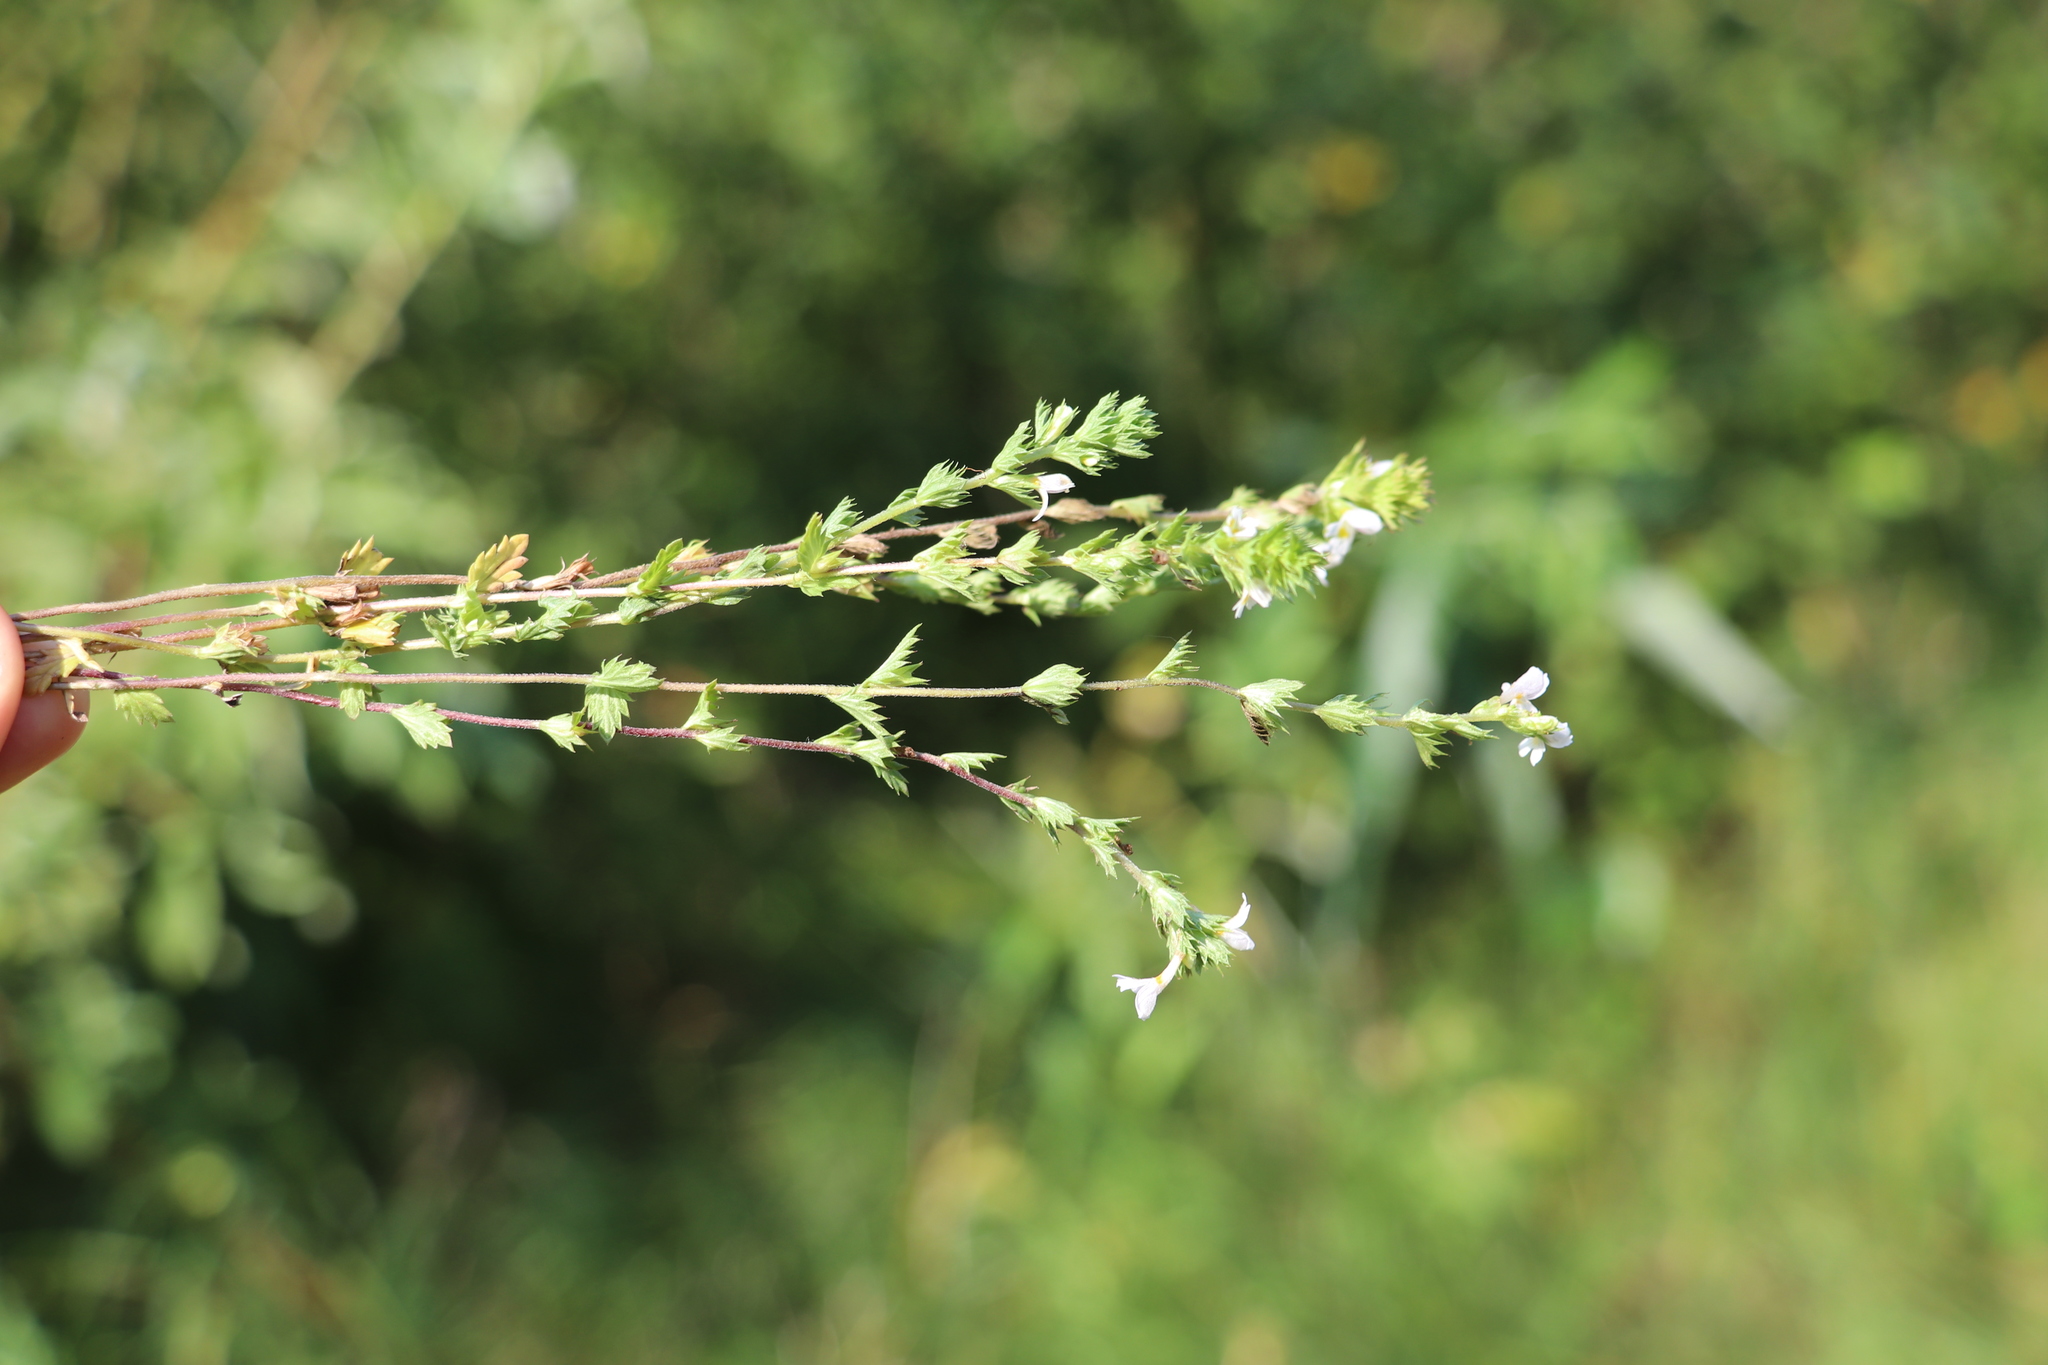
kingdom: Plantae
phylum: Tracheophyta
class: Magnoliopsida
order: Lamiales
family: Orobanchaceae
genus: Euphrasia
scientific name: Euphrasia
